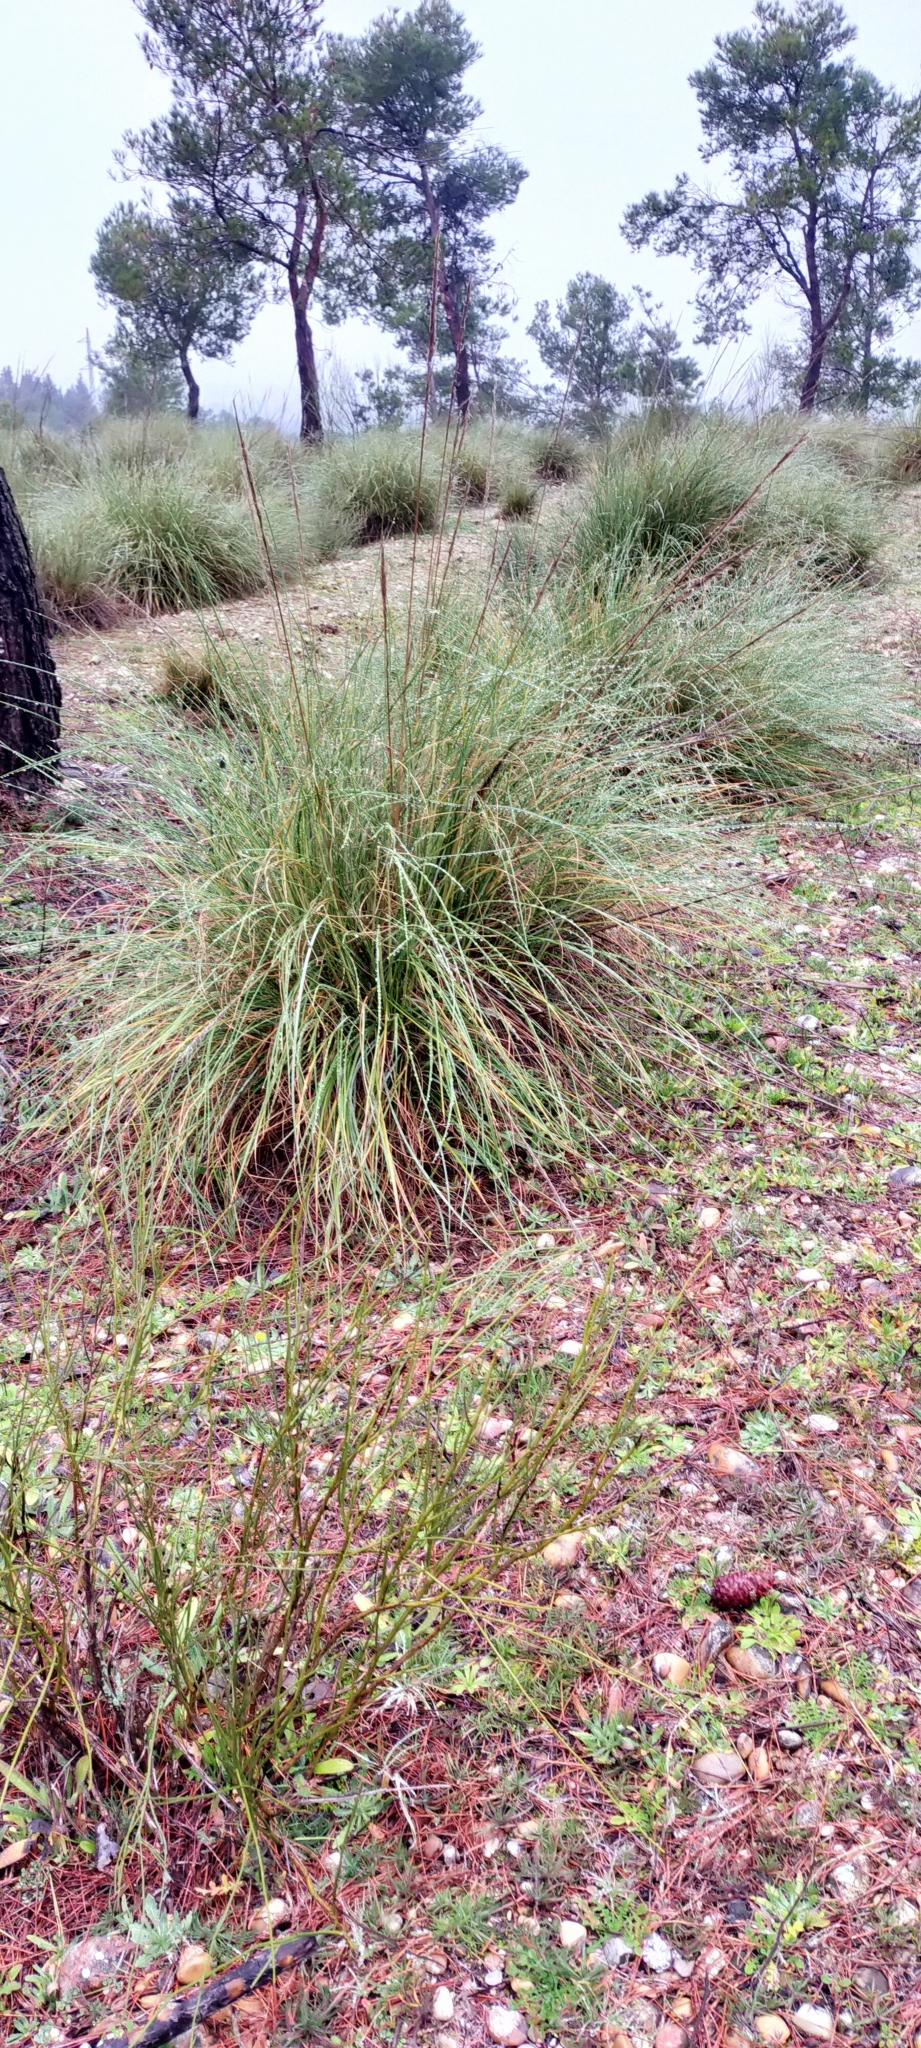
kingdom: Plantae
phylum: Tracheophyta
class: Liliopsida
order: Poales
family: Poaceae
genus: Macrochloa
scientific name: Macrochloa tenacissima
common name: Alfa grass
